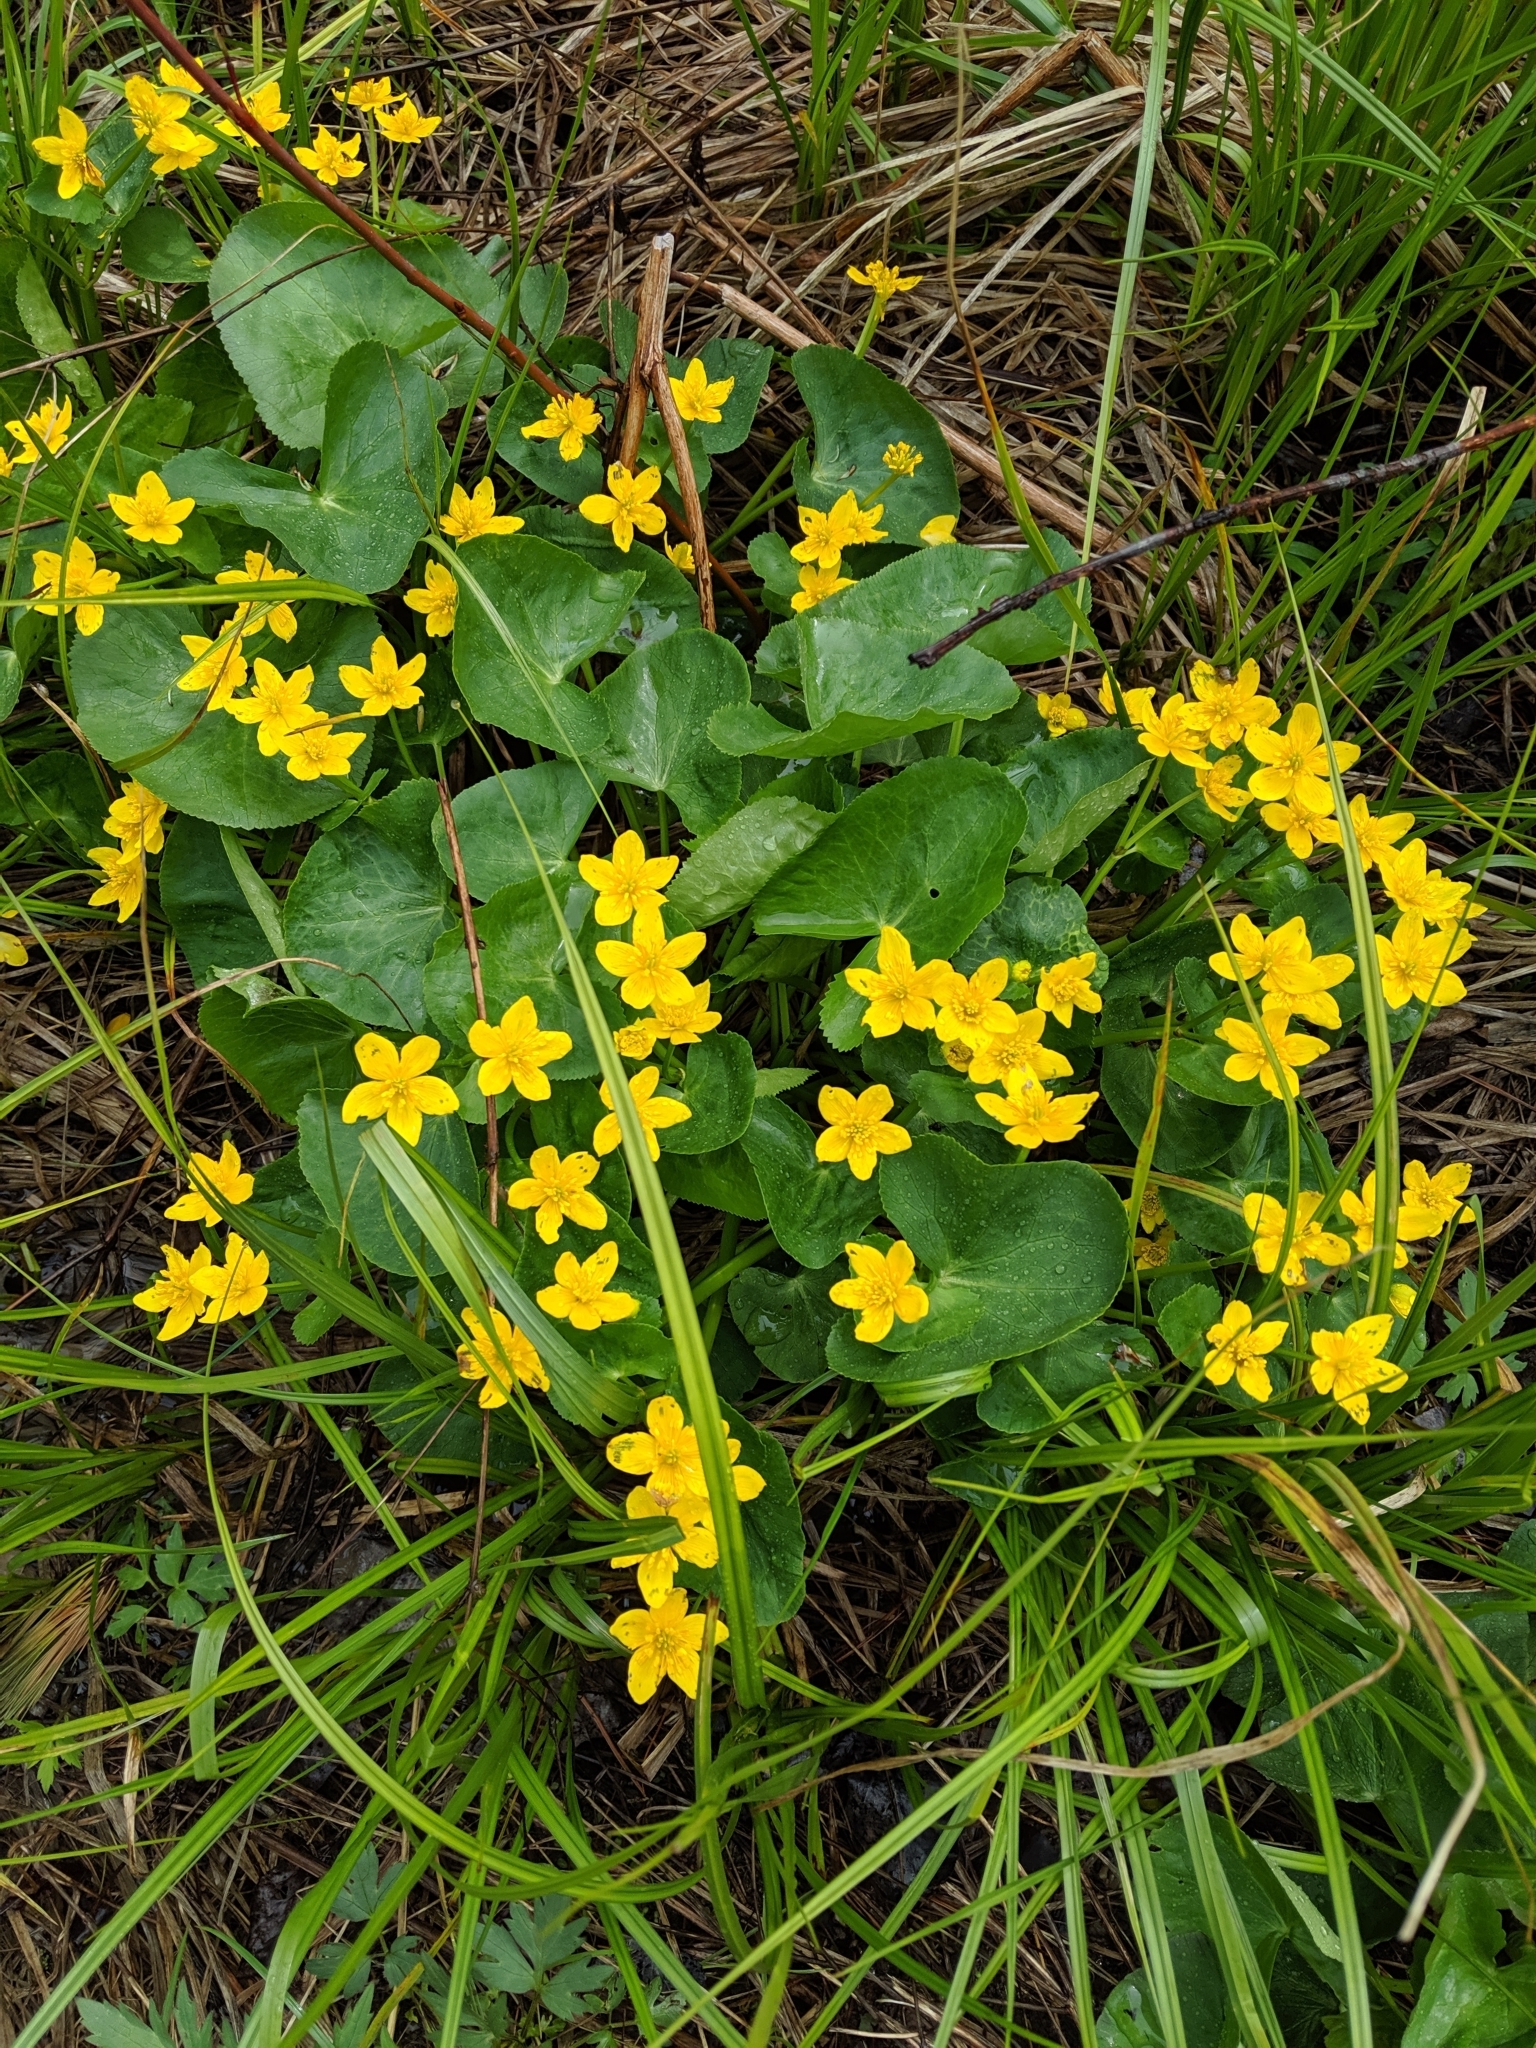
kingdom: Plantae
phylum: Tracheophyta
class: Magnoliopsida
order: Ranunculales
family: Ranunculaceae
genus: Caltha
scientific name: Caltha palustris
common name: Marsh marigold
